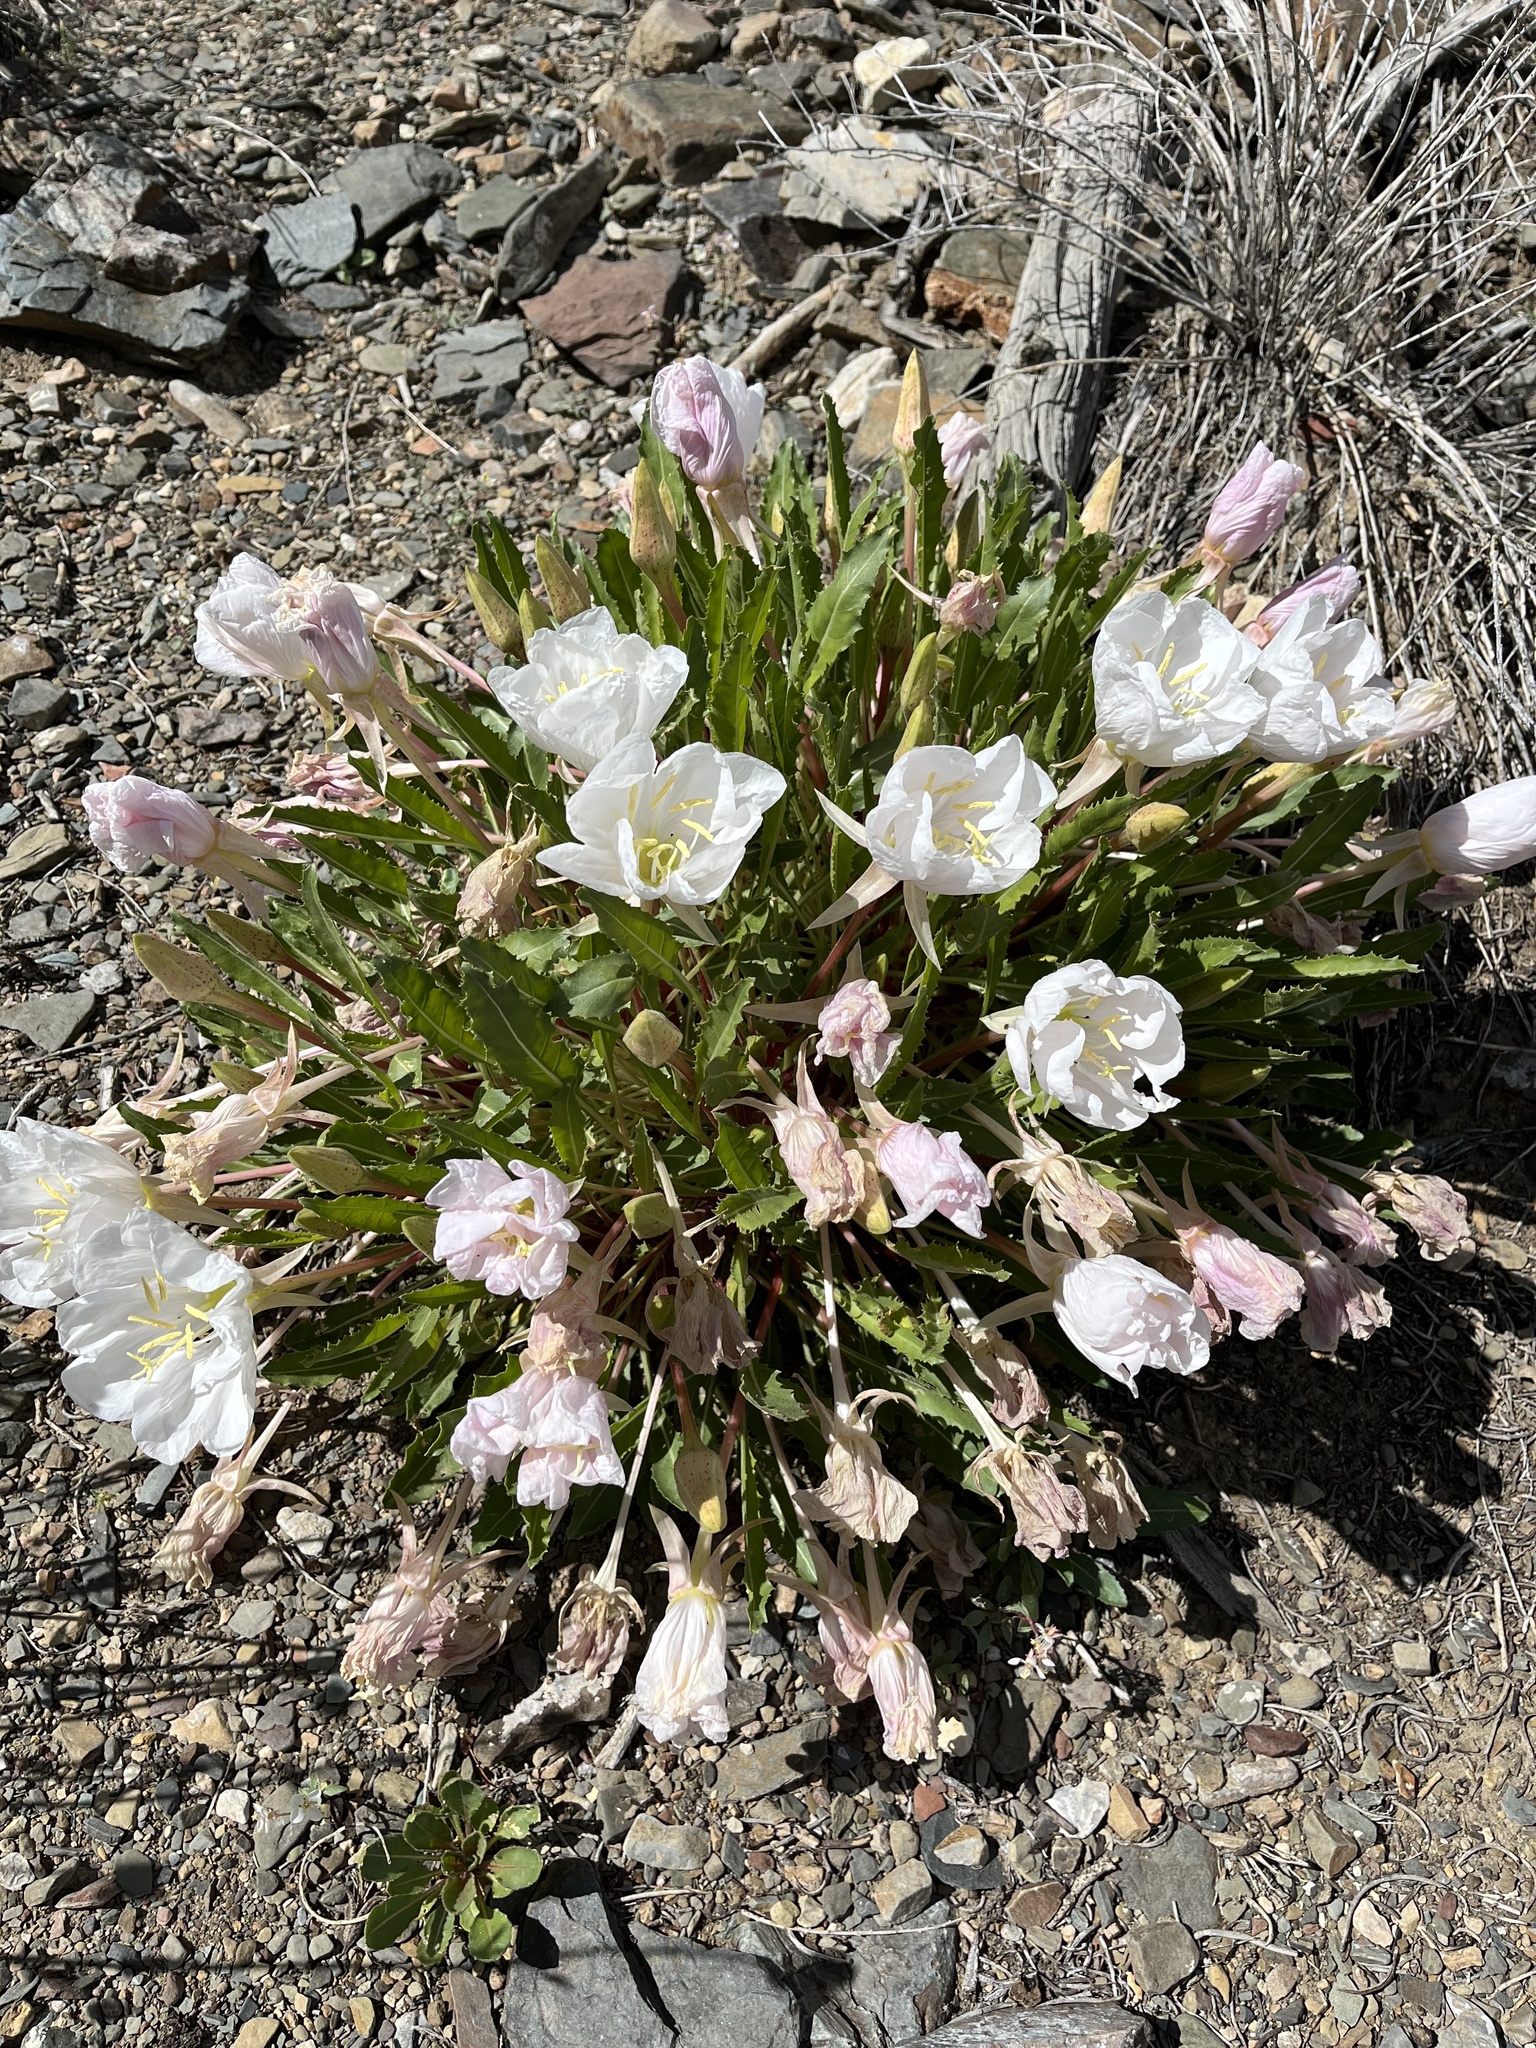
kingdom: Plantae
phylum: Tracheophyta
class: Magnoliopsida
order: Myrtales
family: Onagraceae
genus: Oenothera
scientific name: Oenothera cespitosa
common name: Tufted evening-primrose
